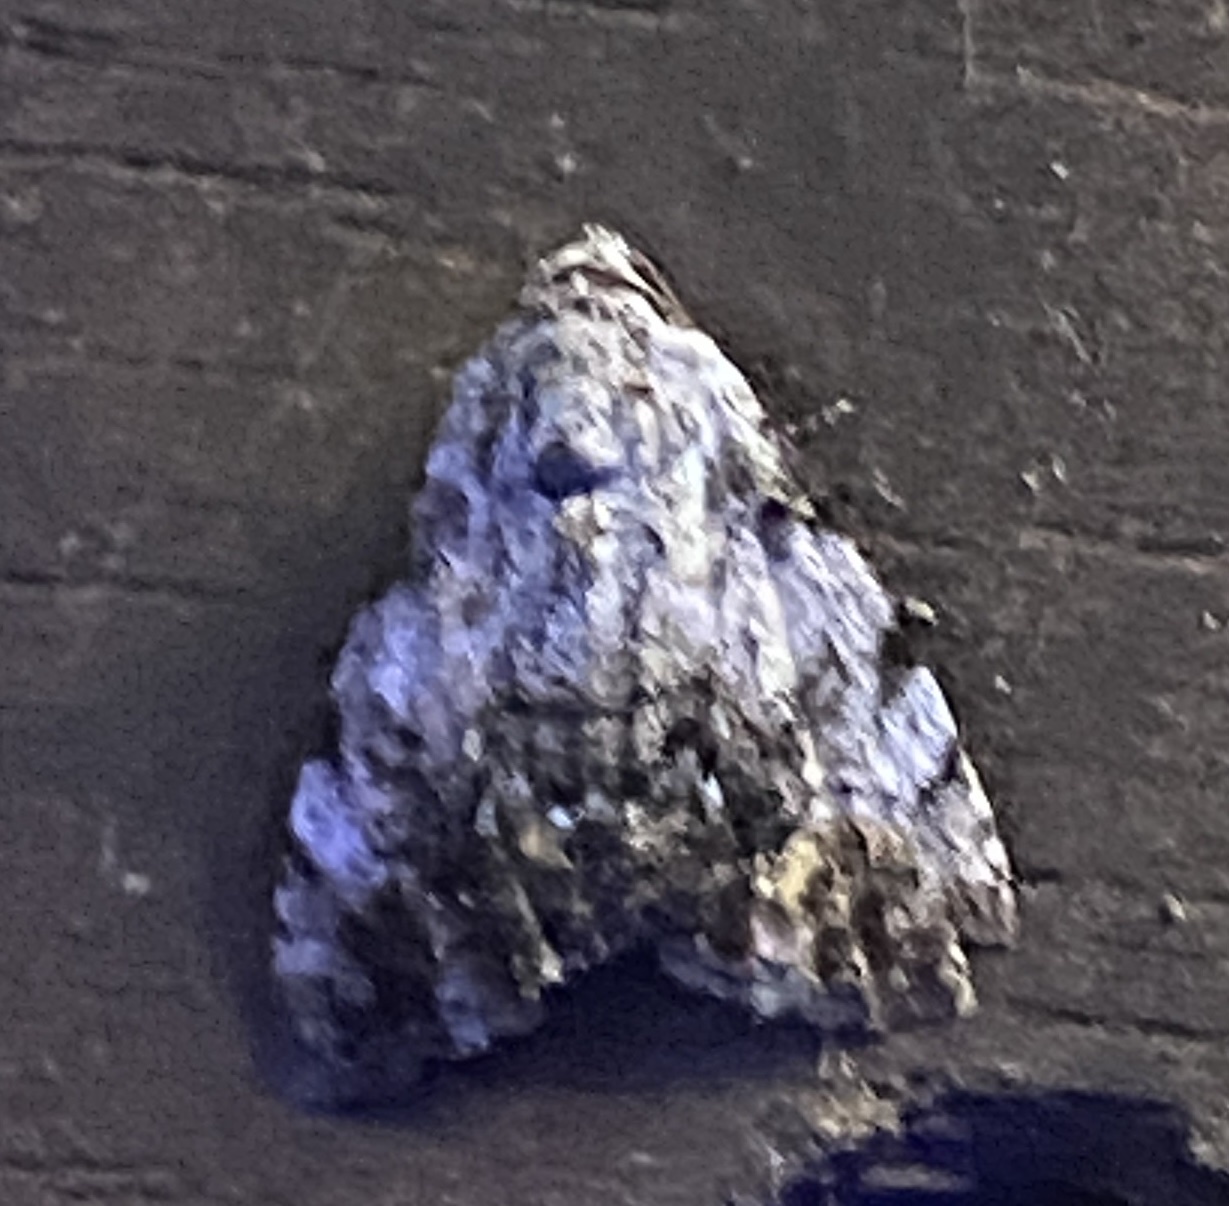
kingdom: Animalia
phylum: Arthropoda
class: Insecta
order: Lepidoptera
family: Noctuidae
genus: Metachrostis
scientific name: Metachrostis paurograpta
